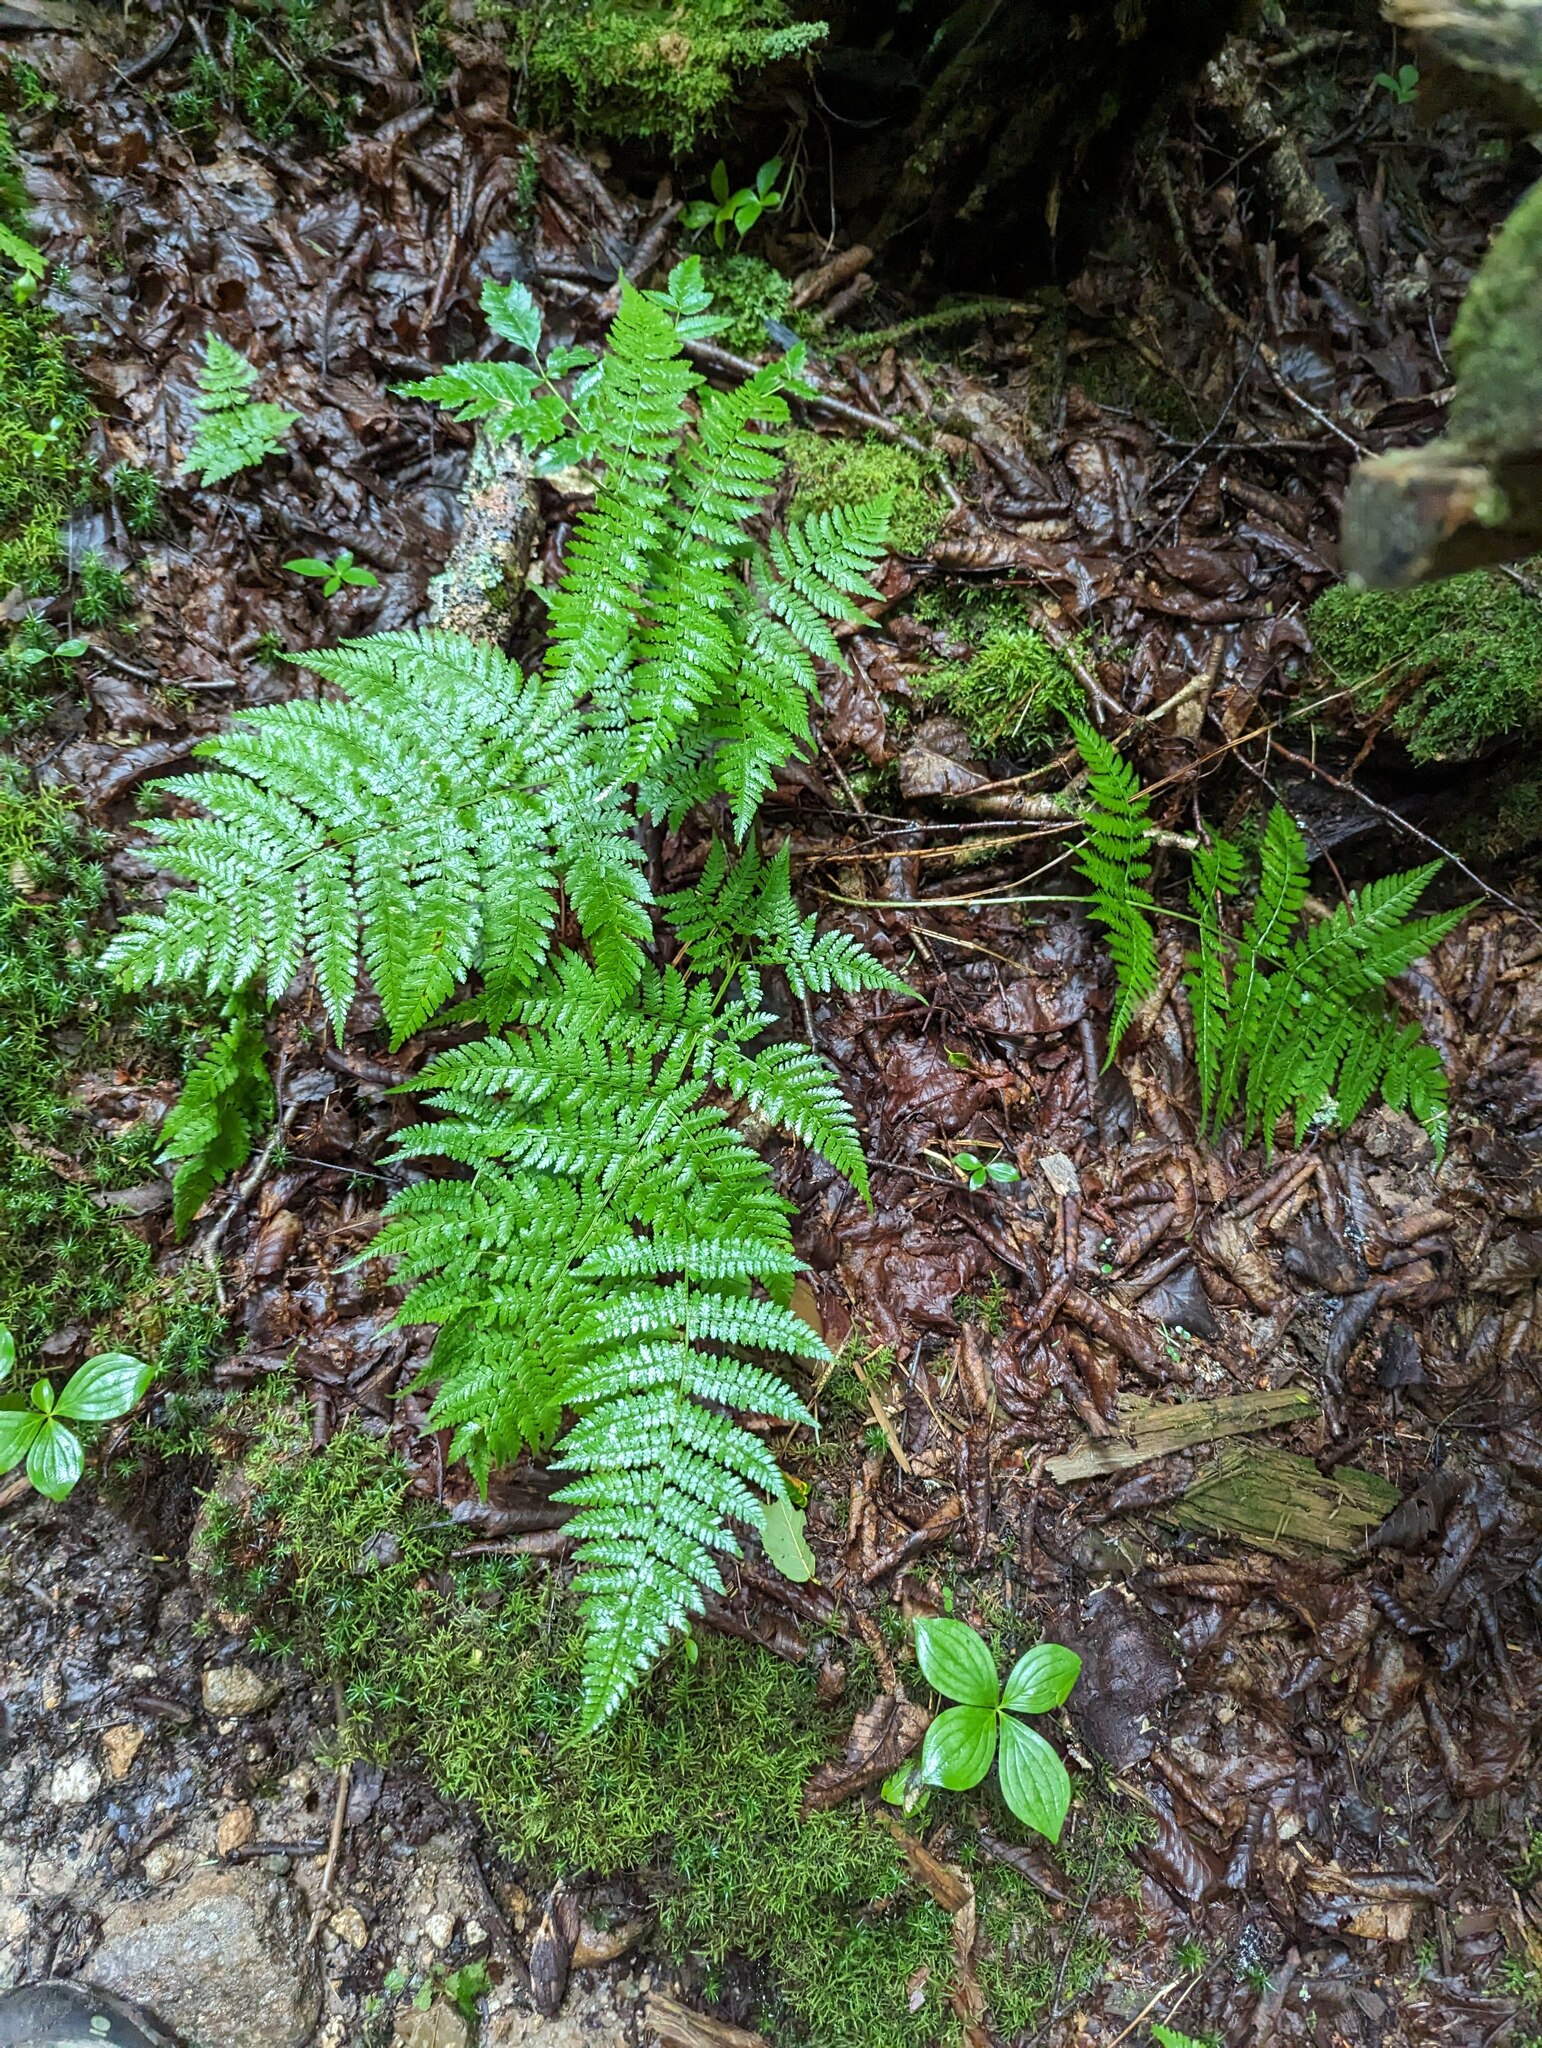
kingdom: Plantae
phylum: Tracheophyta
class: Polypodiopsida
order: Polypodiales
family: Dryopteridaceae
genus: Dryopteris
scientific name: Dryopteris campyloptera
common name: Mountain wood fern
